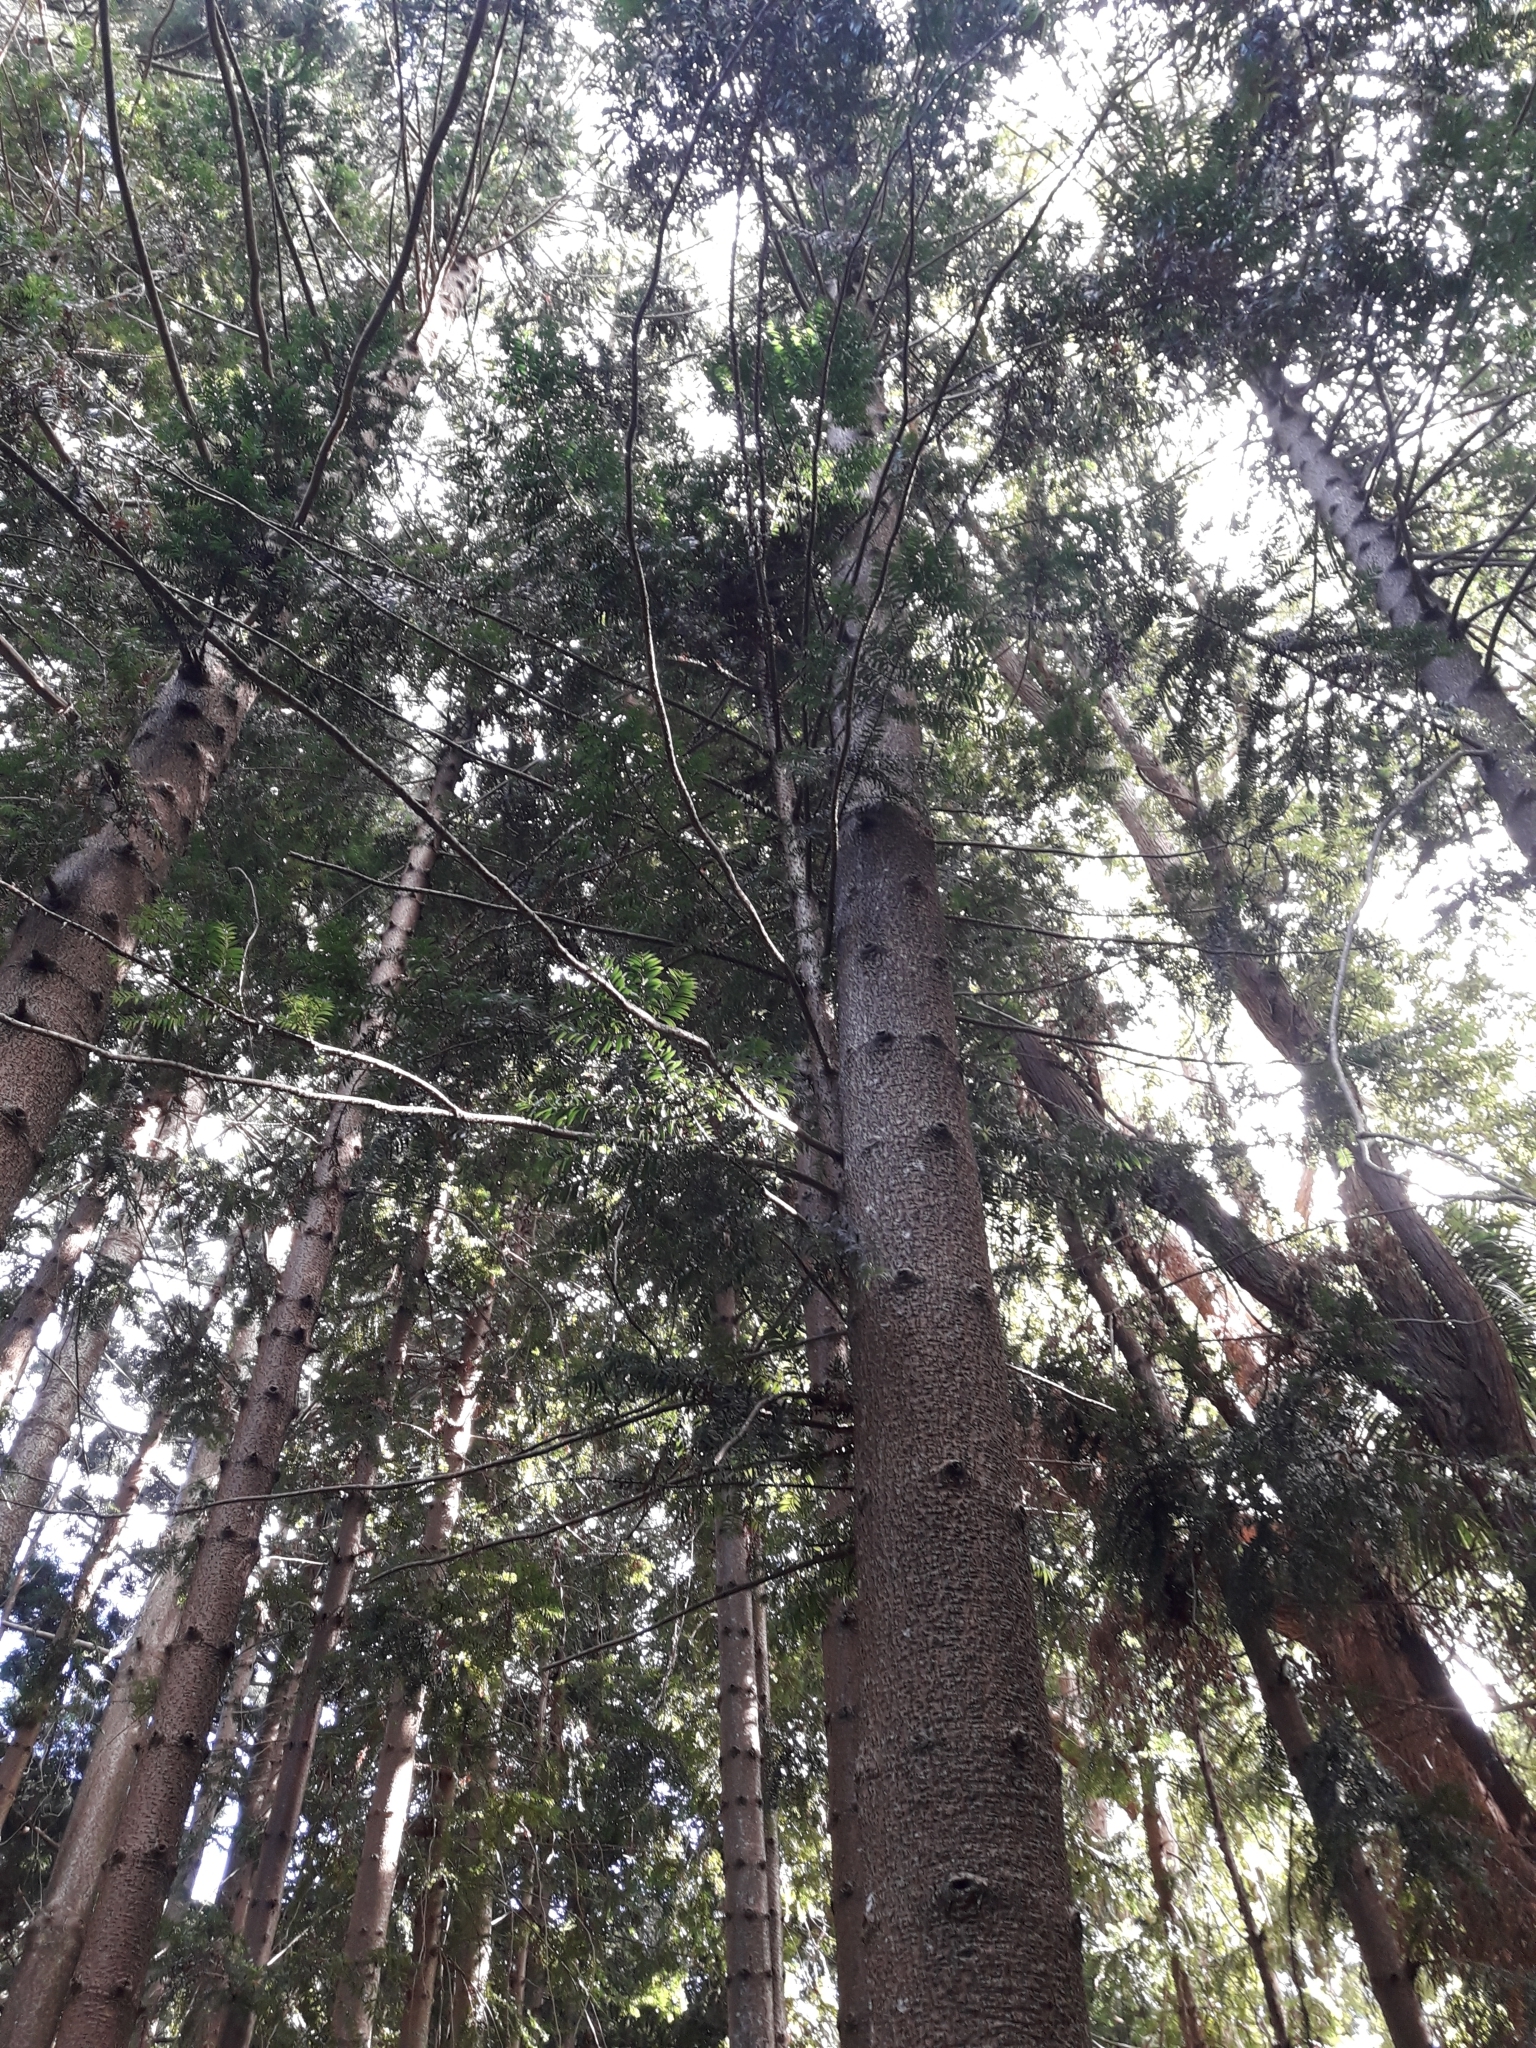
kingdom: Plantae
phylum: Tracheophyta
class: Pinopsida
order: Pinales
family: Araucariaceae
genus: Araucaria
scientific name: Araucaria bidwillii
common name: Moreton-bay-pine
